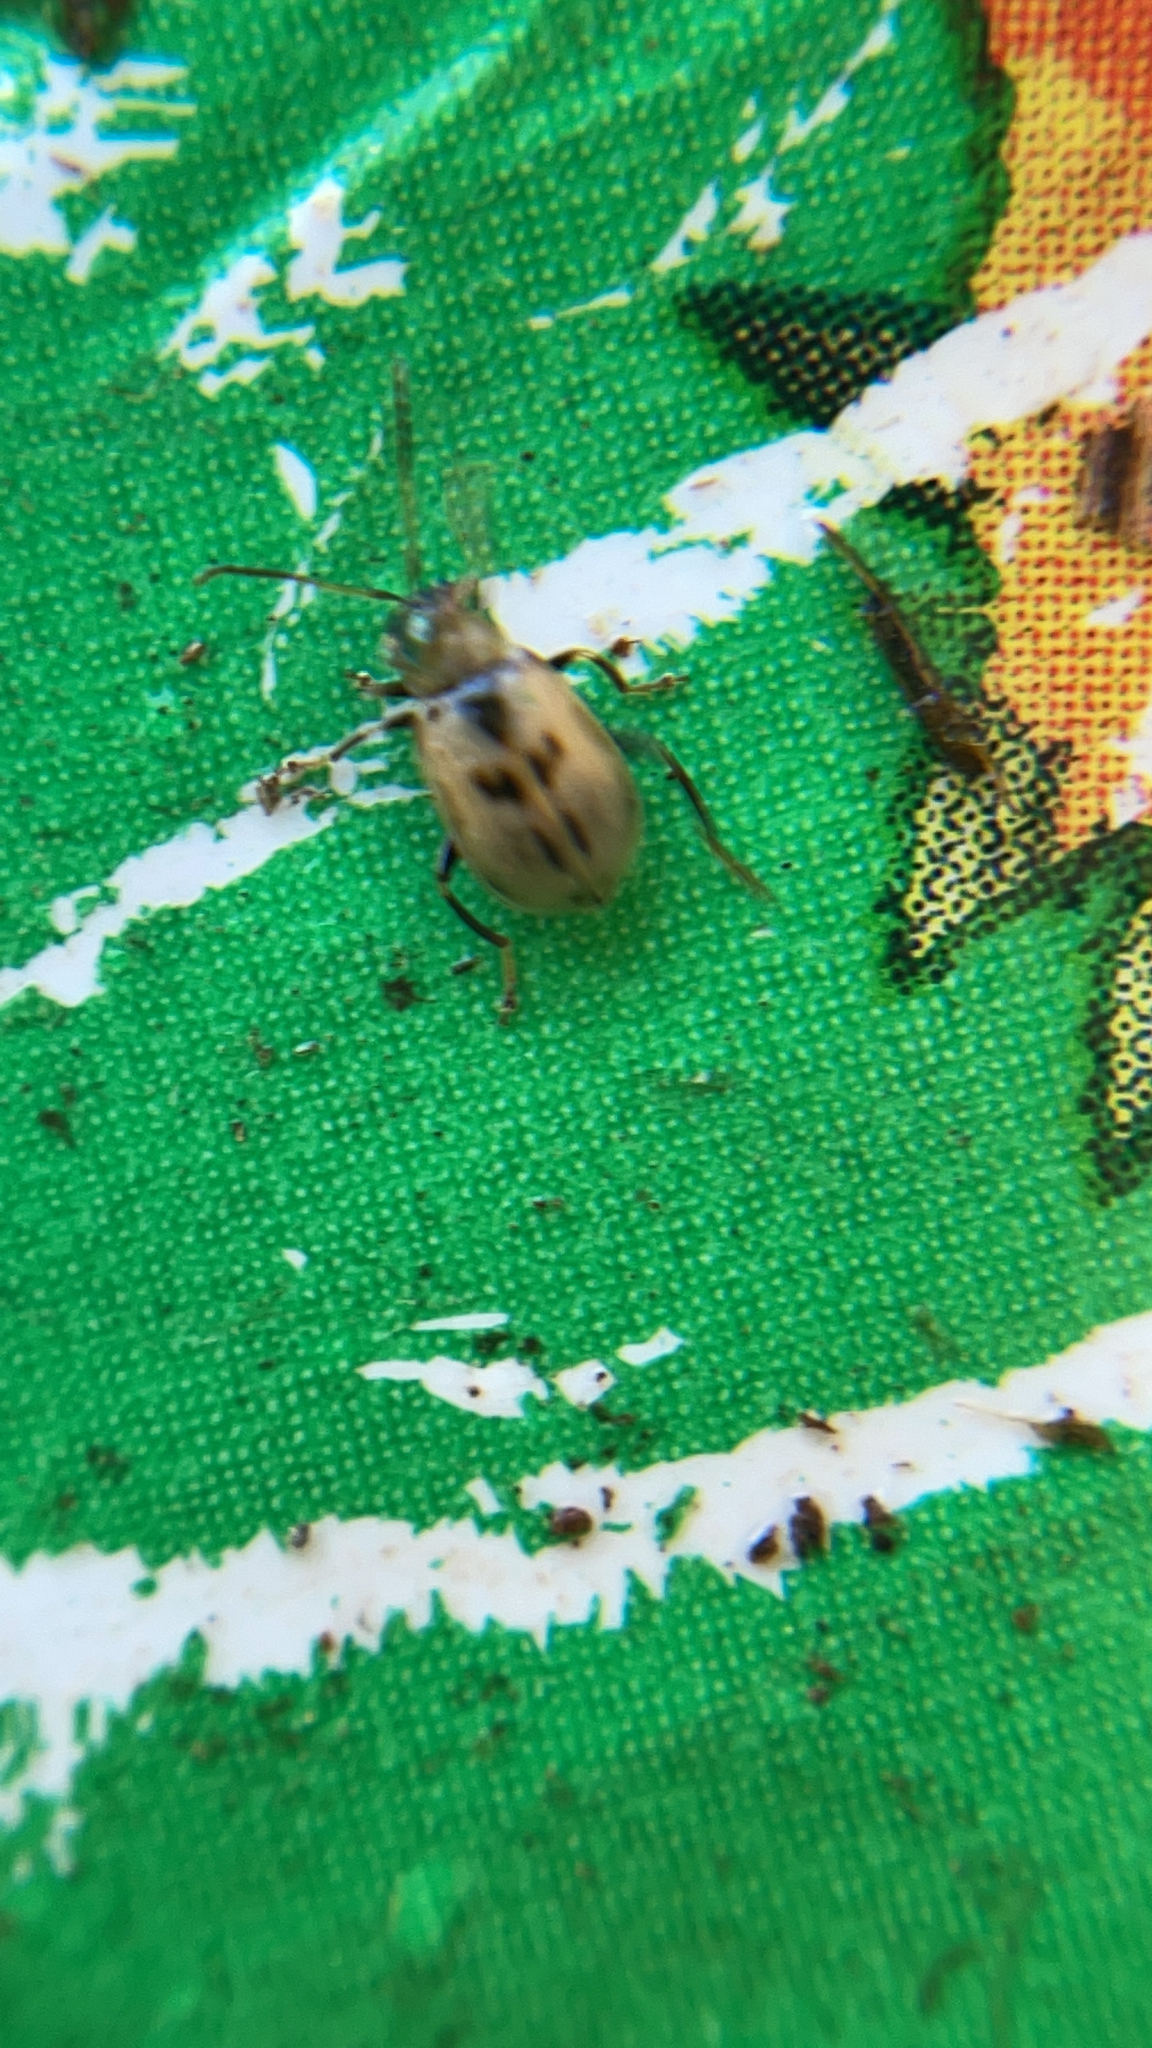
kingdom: Animalia
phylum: Arthropoda
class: Insecta
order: Coleoptera
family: Chrysomelidae
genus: Cerotoma
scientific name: Cerotoma trifurcata
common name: Bean leaf beetle
